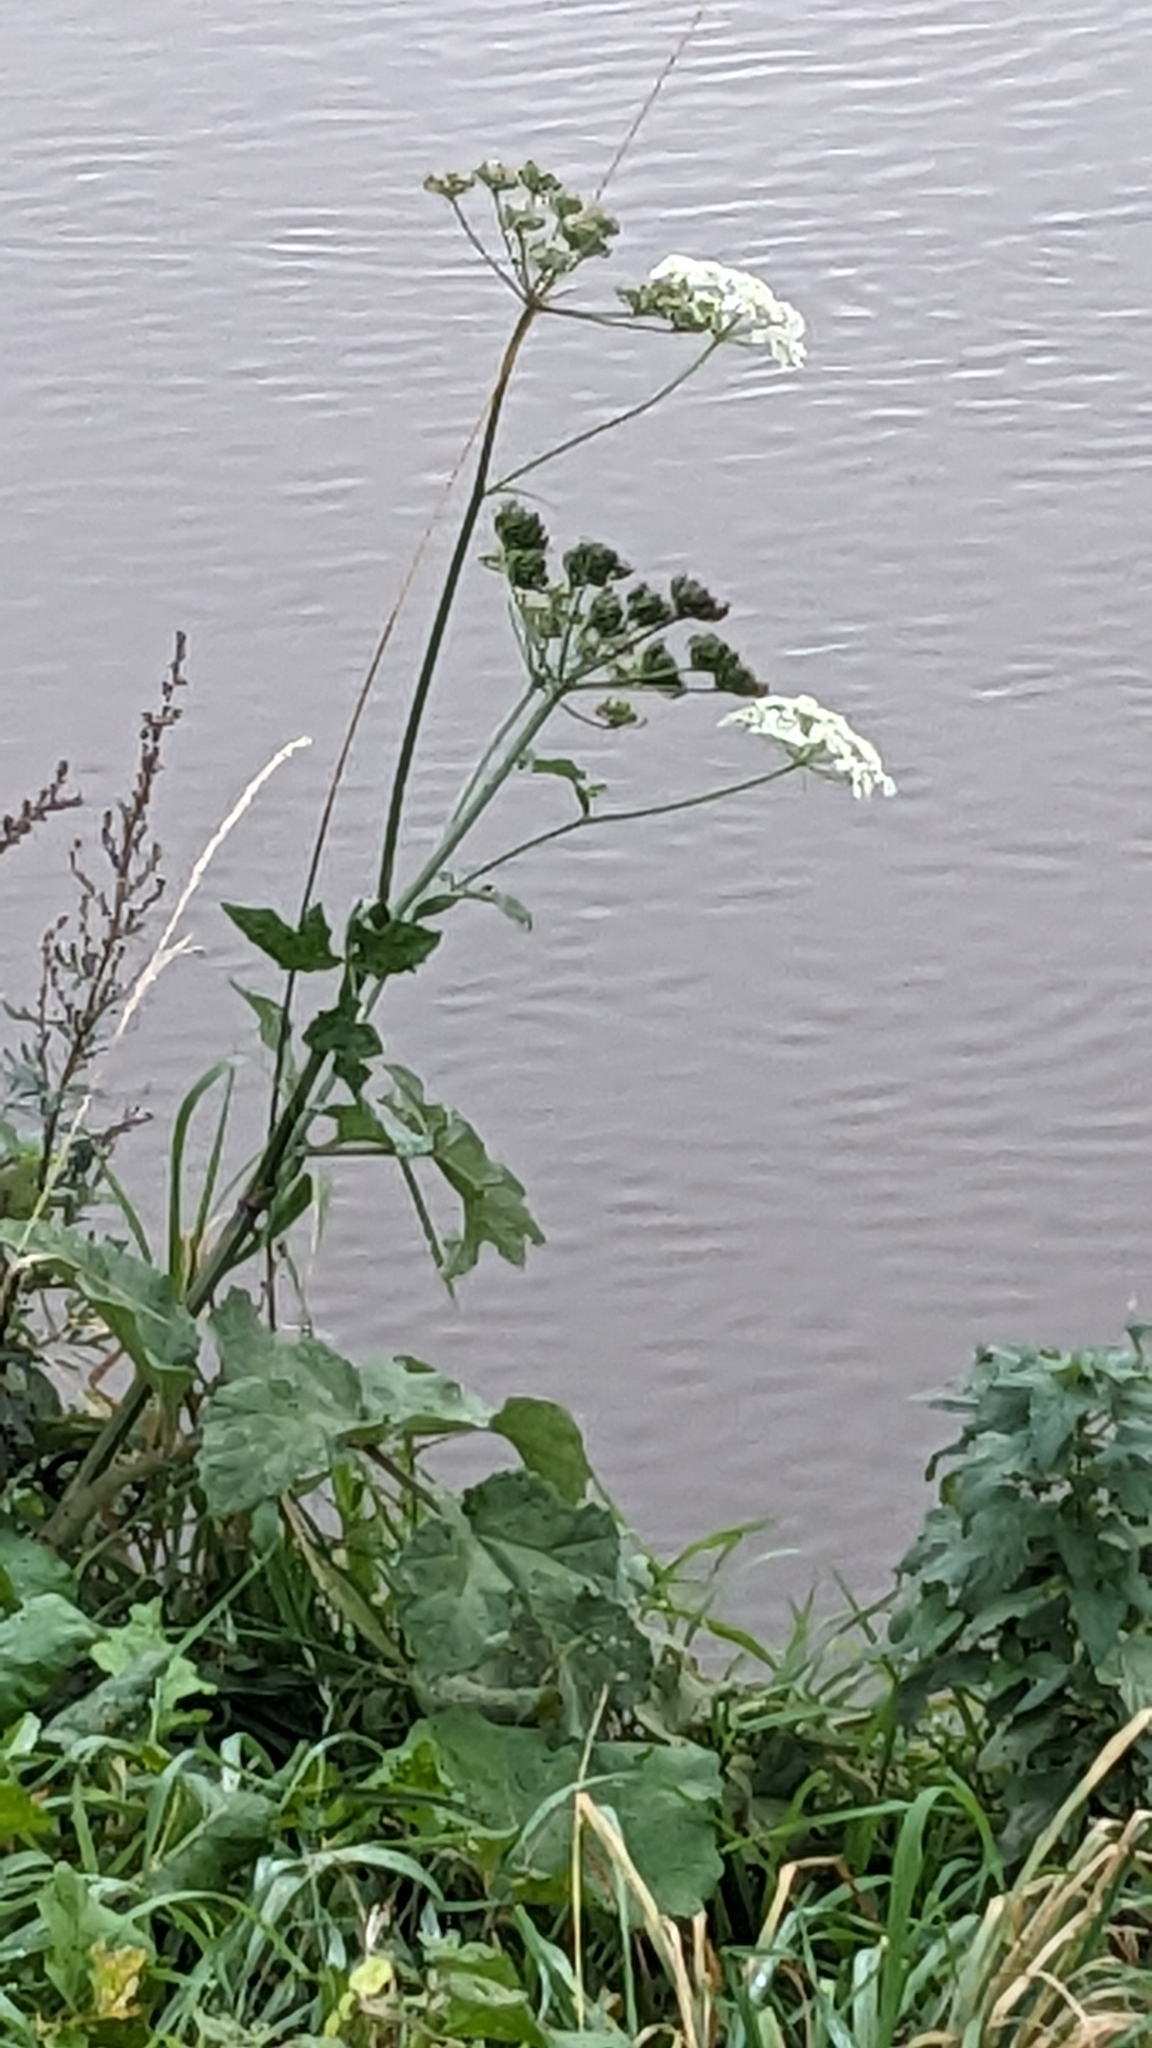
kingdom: Plantae
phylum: Tracheophyta
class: Magnoliopsida
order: Apiales
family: Apiaceae
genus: Heracleum
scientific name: Heracleum sphondylium
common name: Hogweed
